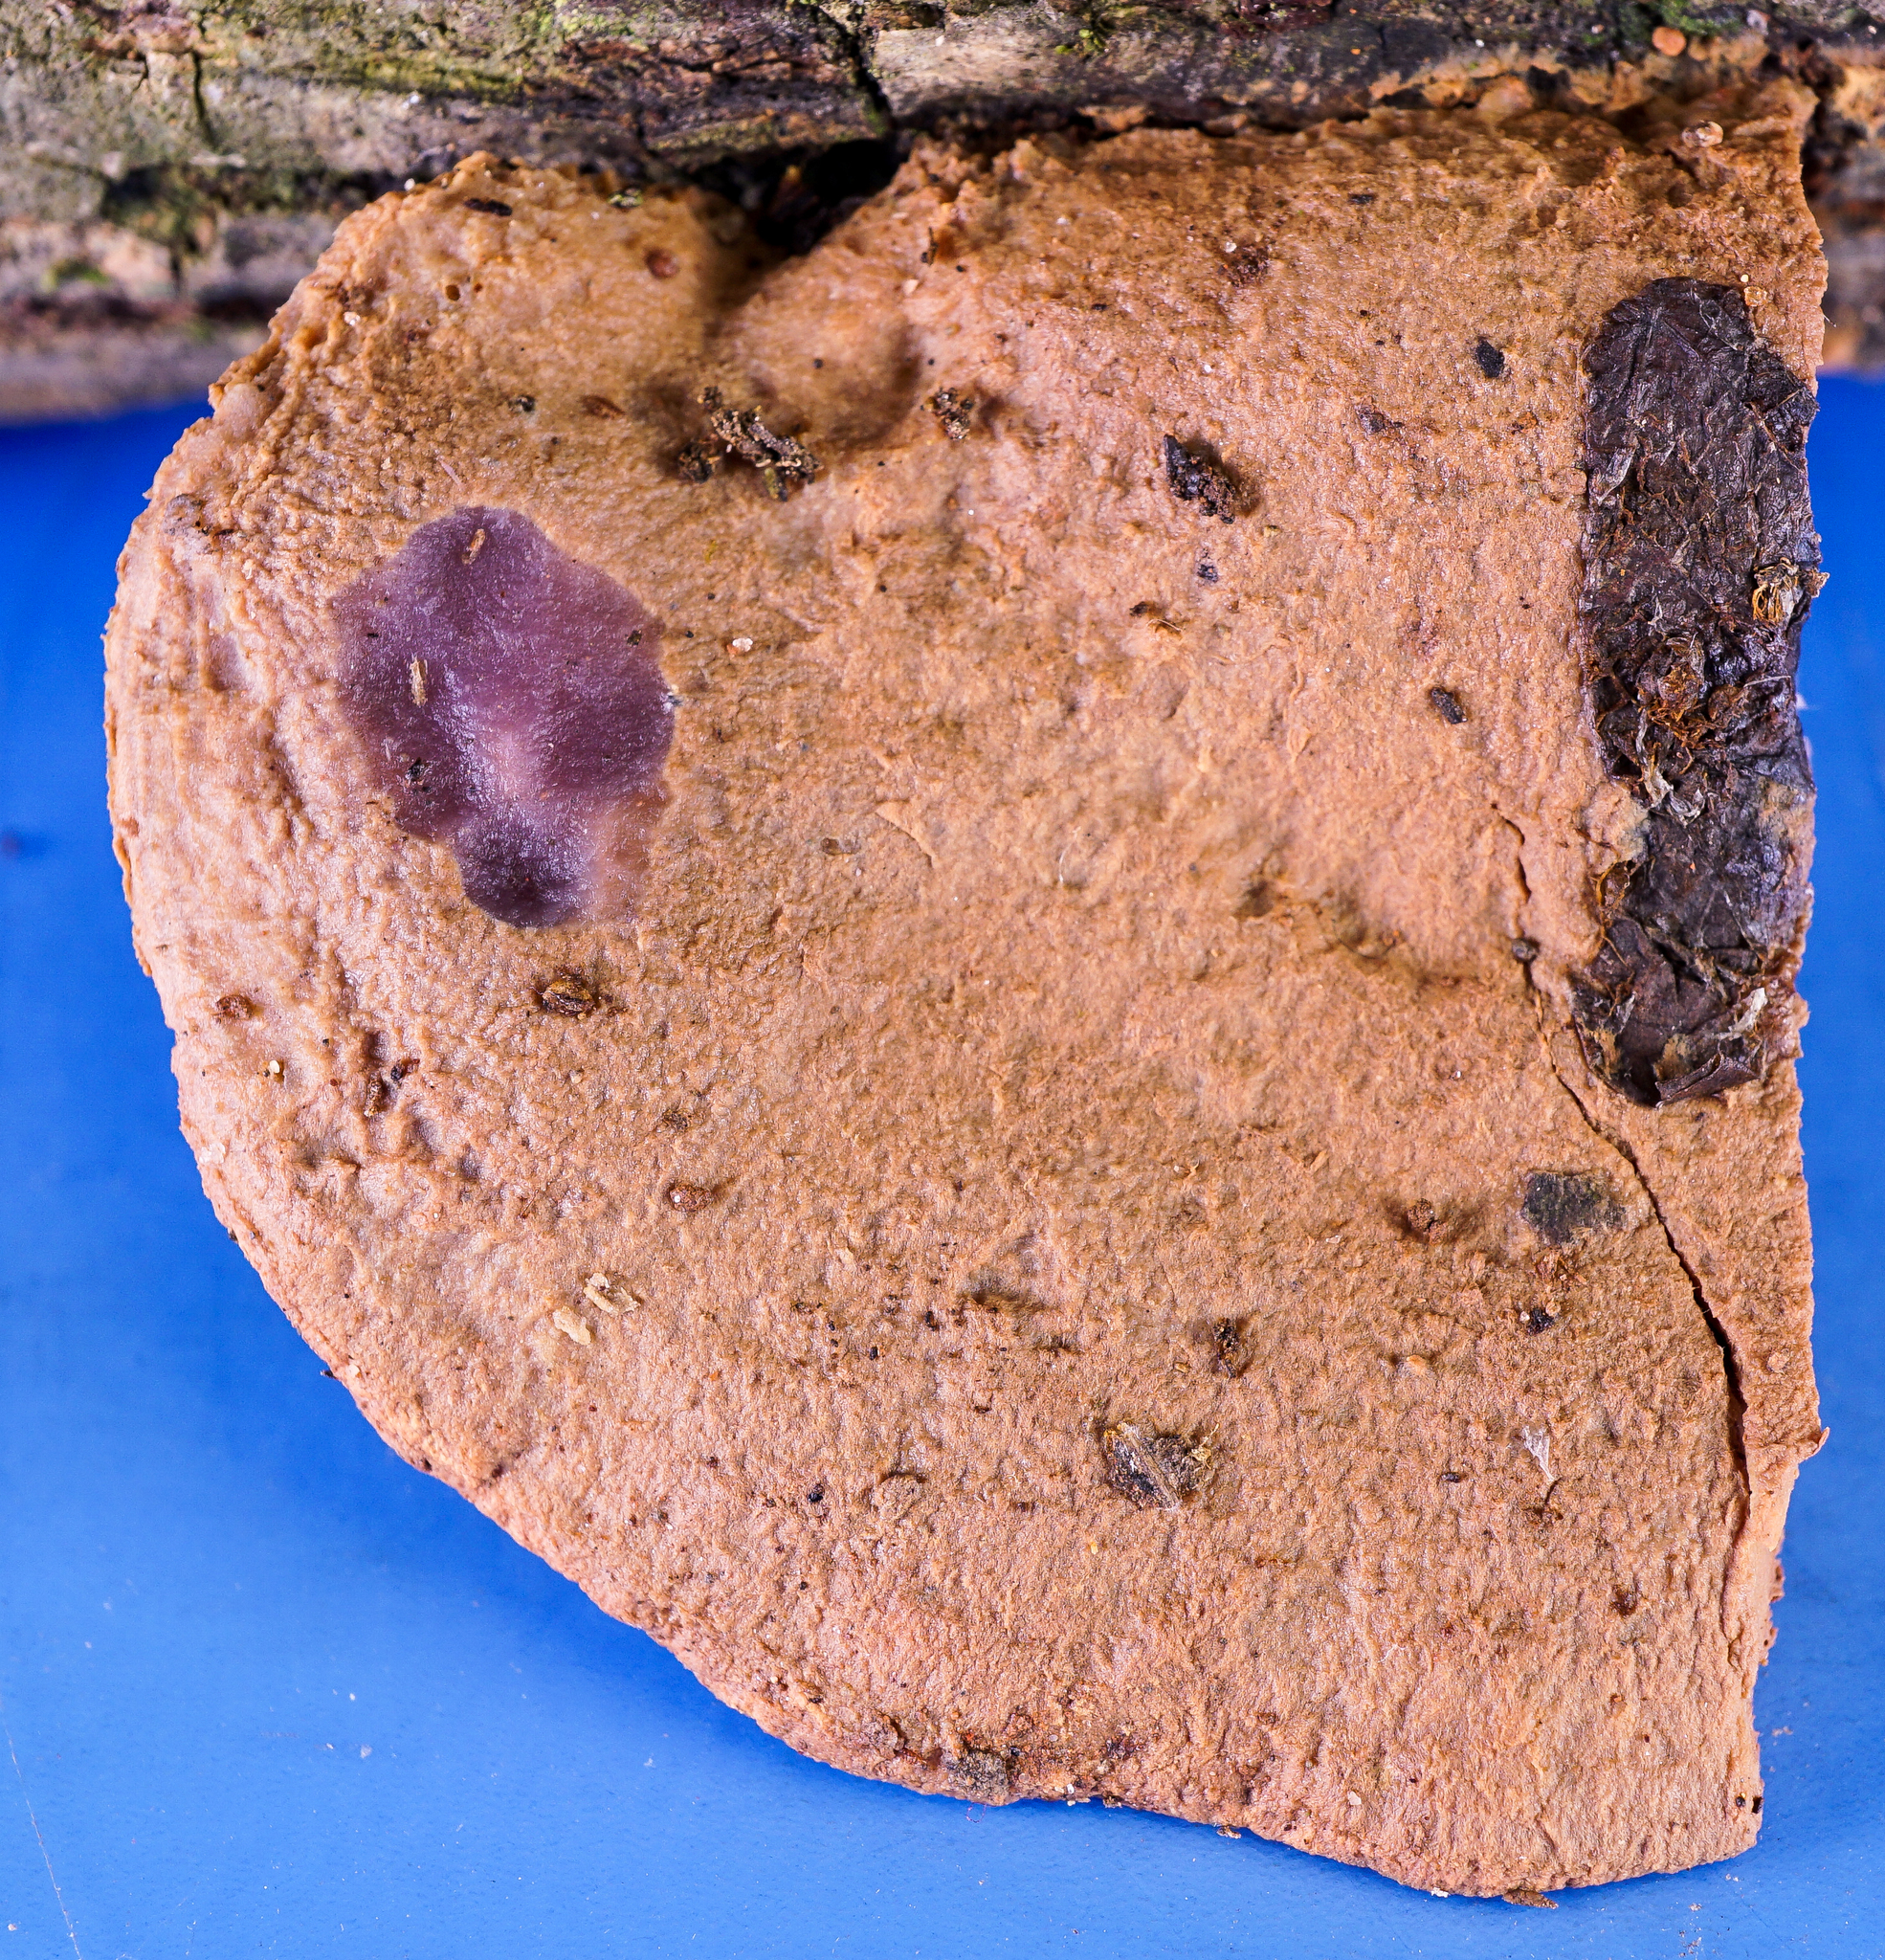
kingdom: Fungi
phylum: Basidiomycota
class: Agaricomycetes
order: Polyporales
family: Phanerochaetaceae
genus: Hapalopilus
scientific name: Hapalopilus rutilans
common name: Tender nesting polypore
